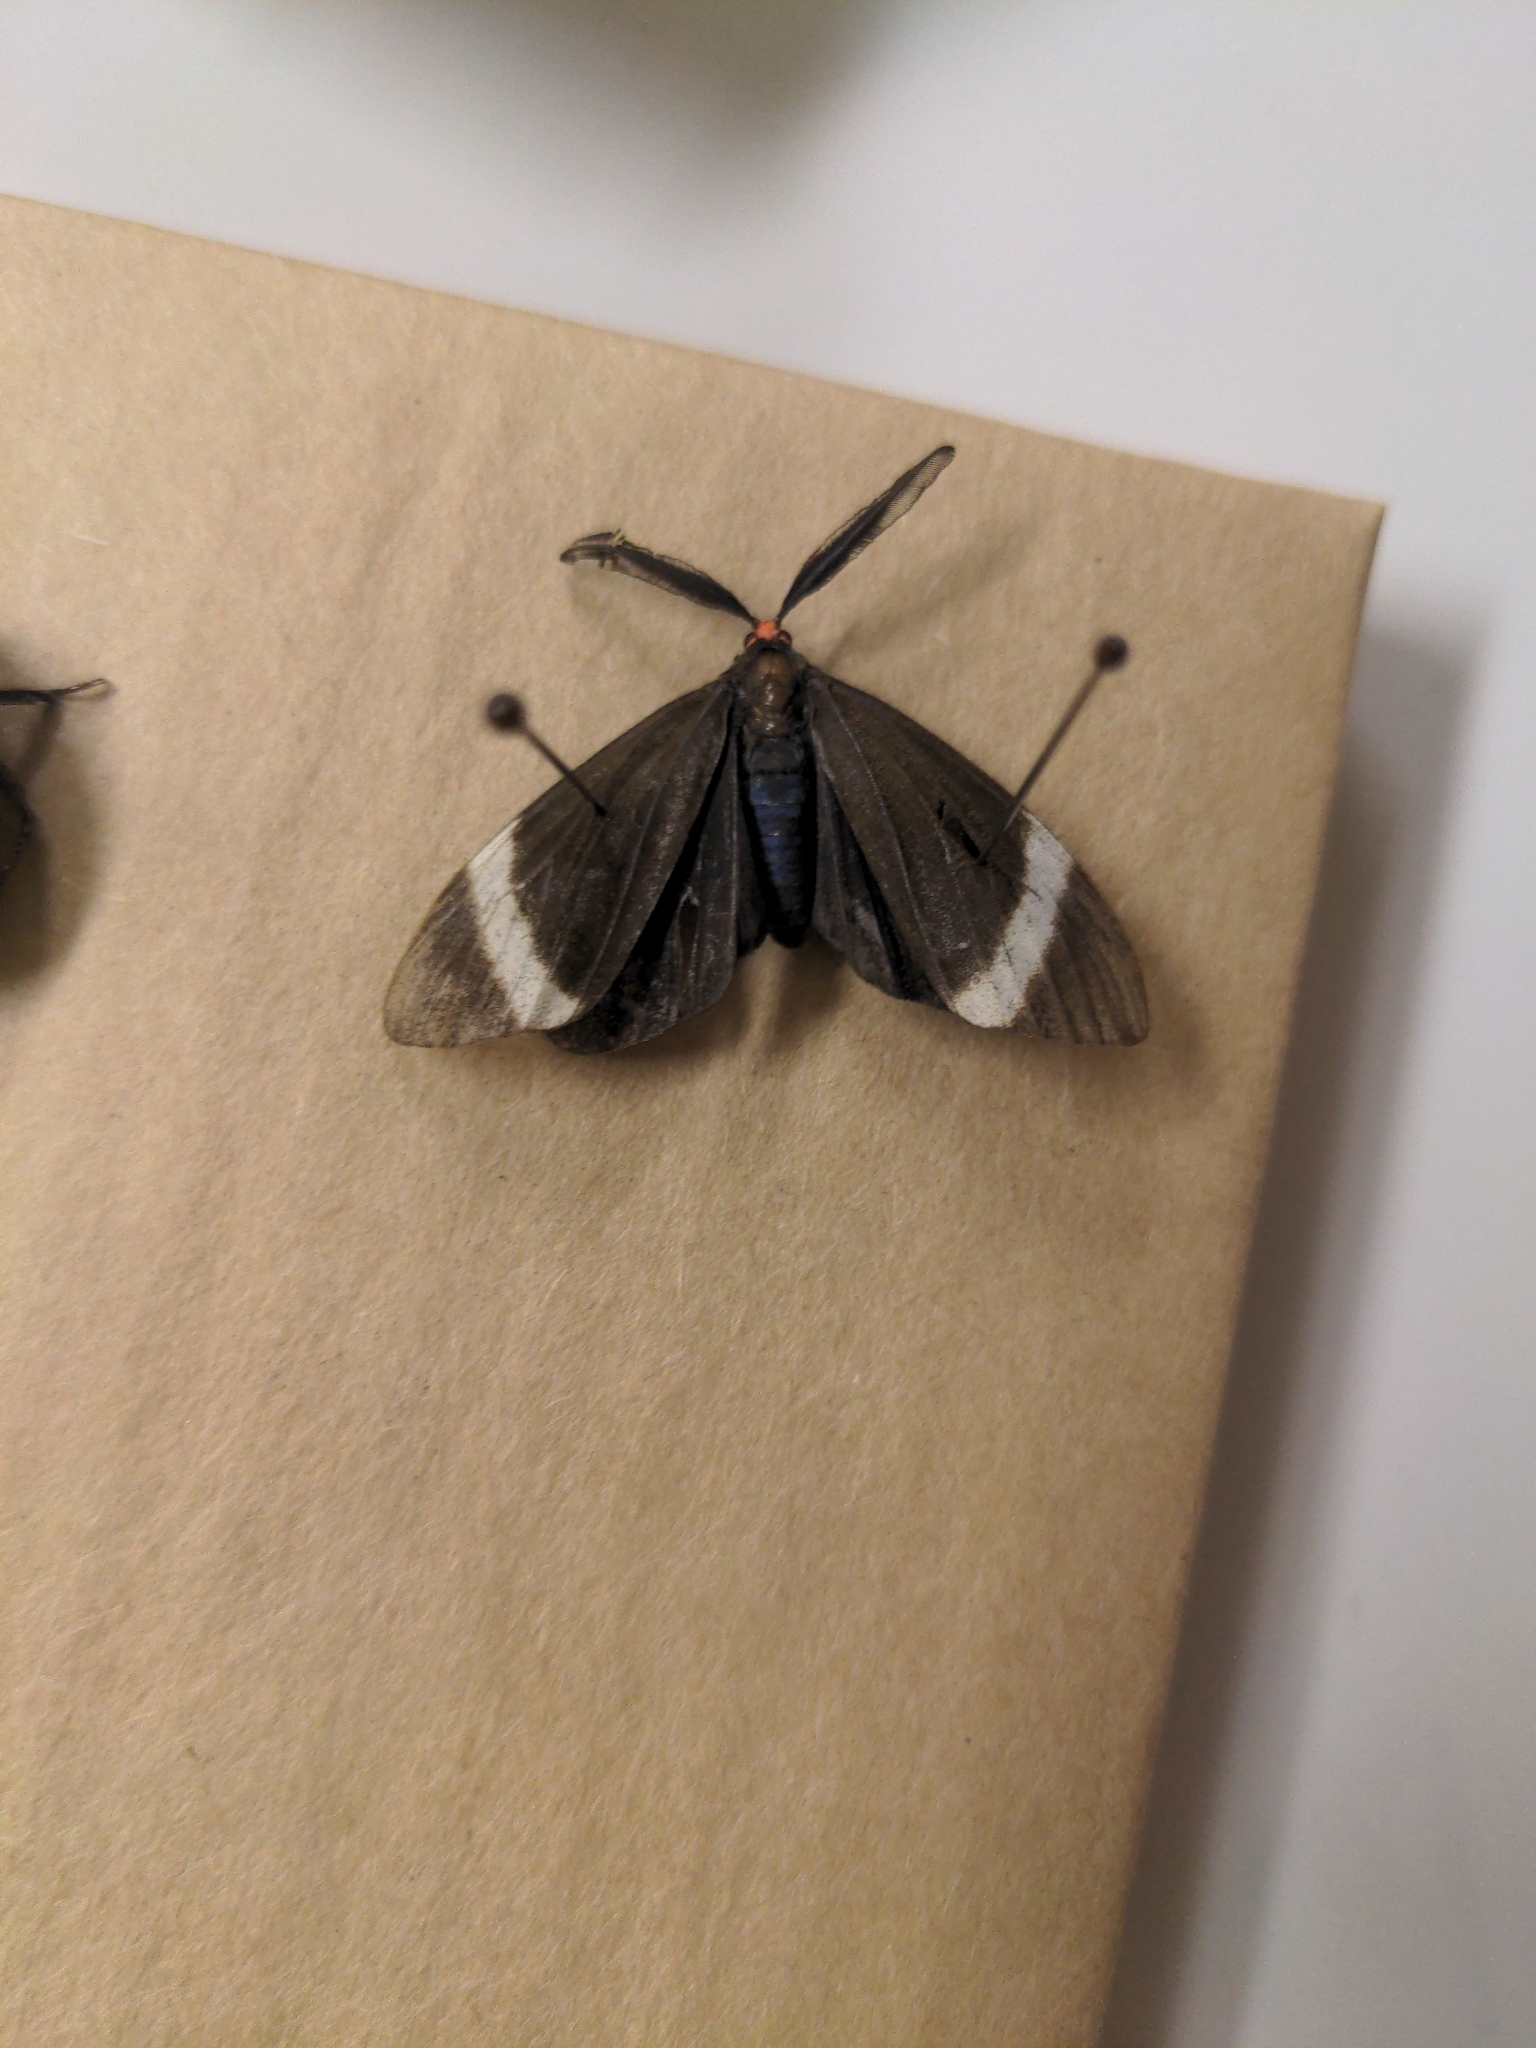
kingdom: Animalia
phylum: Arthropoda
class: Insecta
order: Lepidoptera
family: Zygaenidae
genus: Pidorus
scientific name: Pidorus glaucopis
